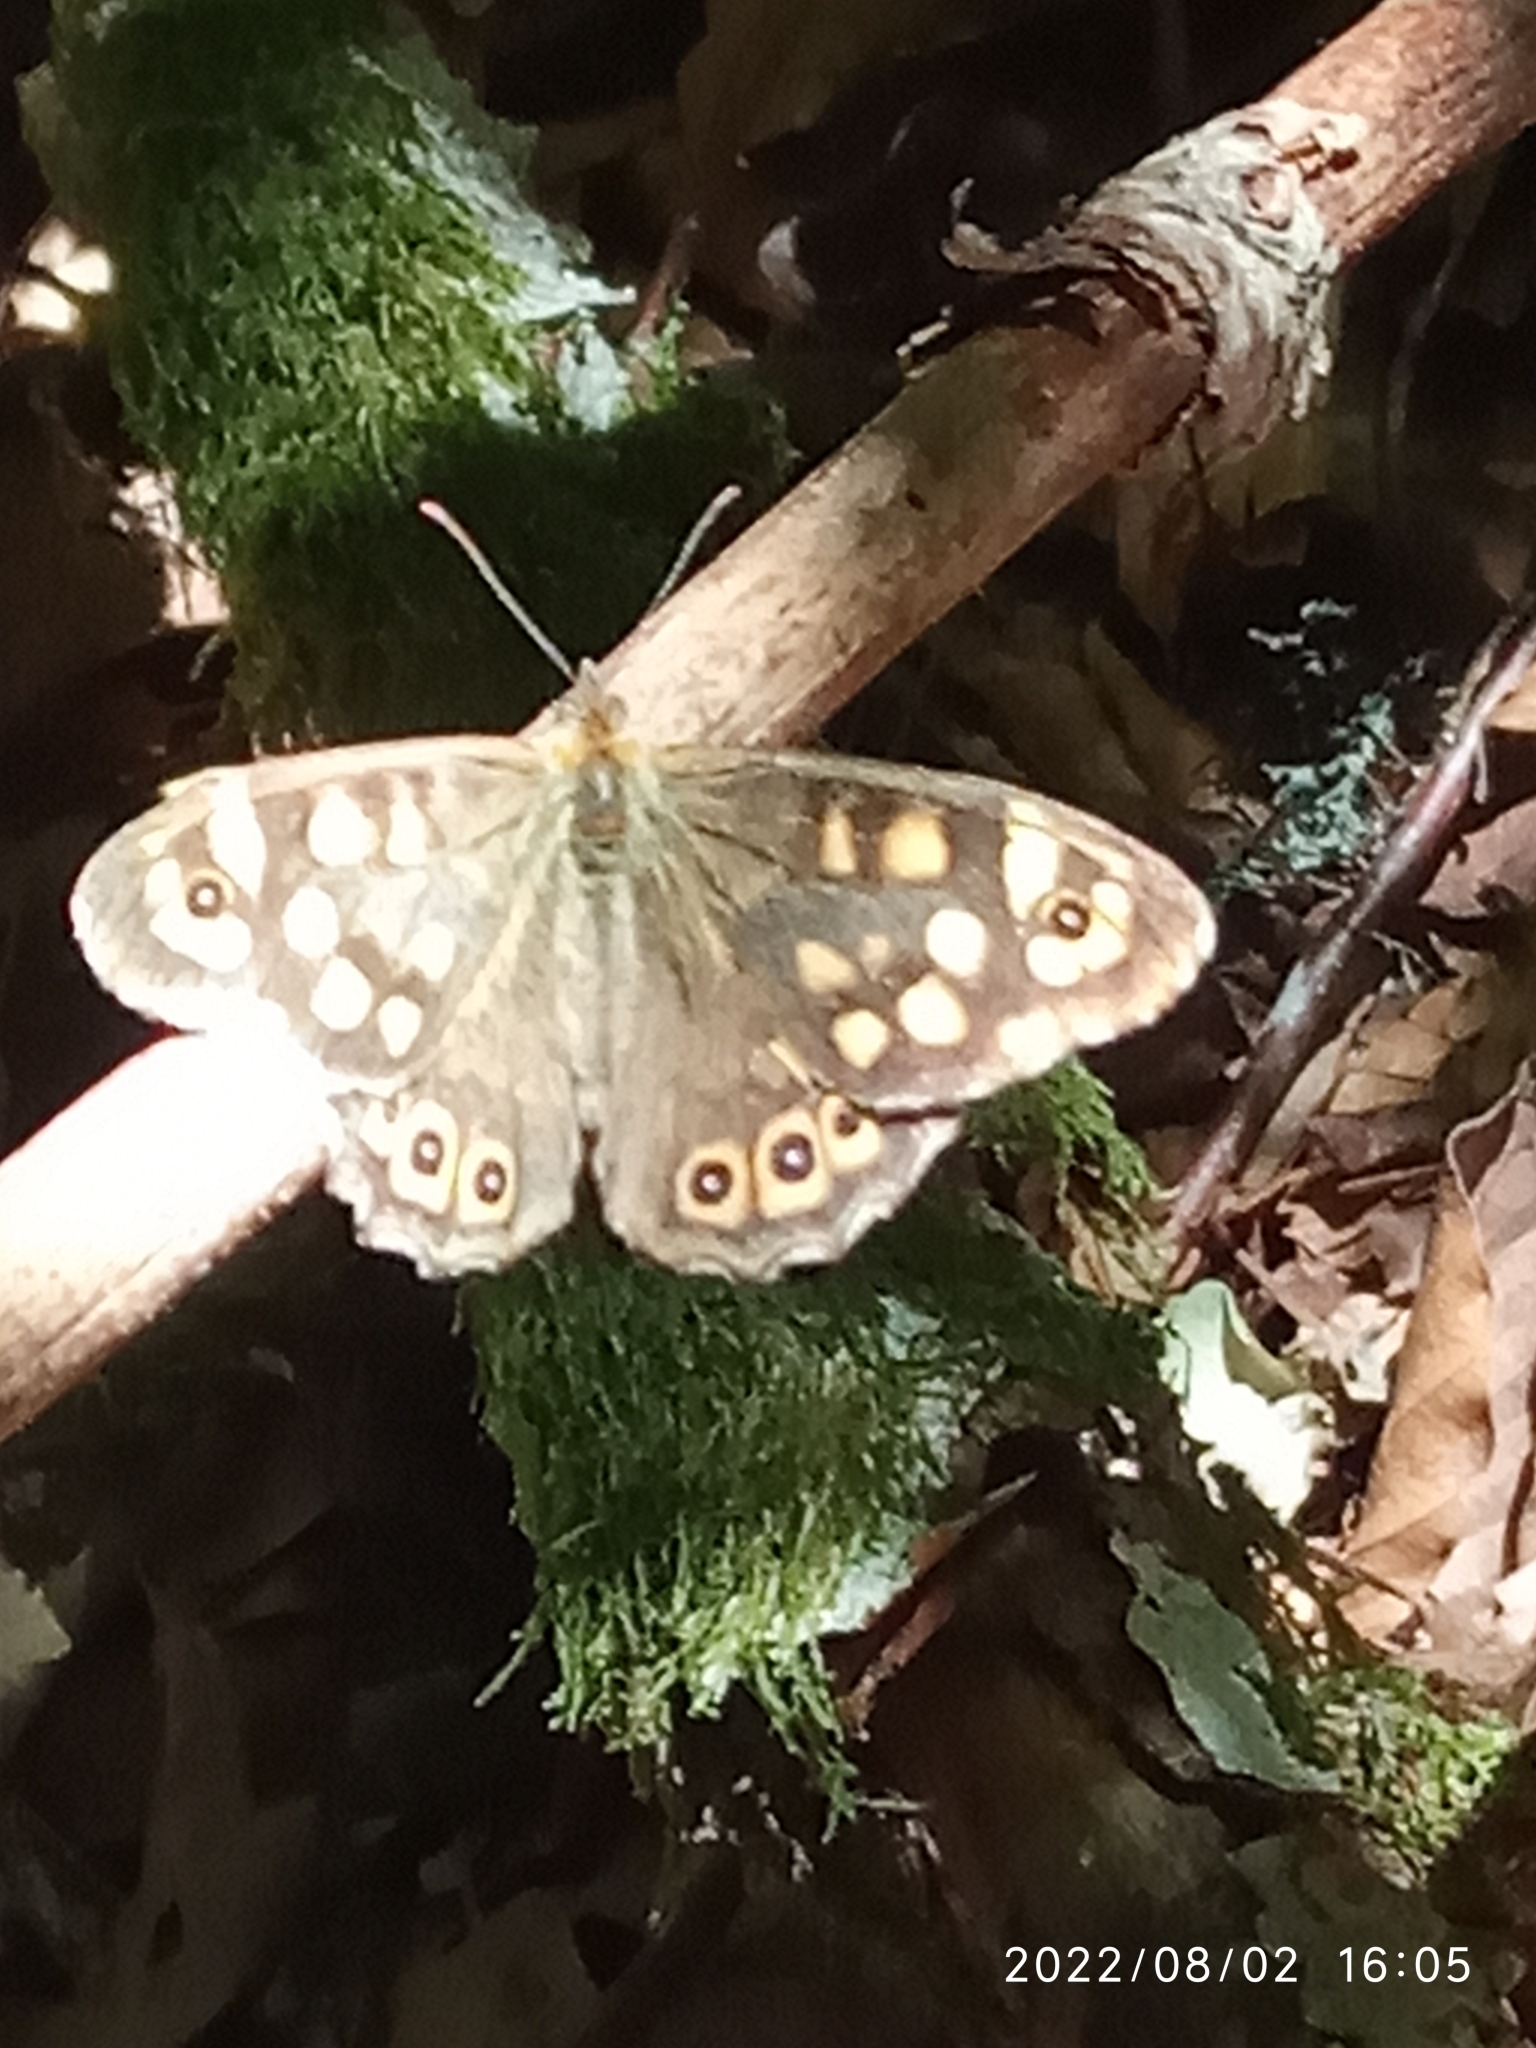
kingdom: Animalia
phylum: Arthropoda
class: Insecta
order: Lepidoptera
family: Nymphalidae
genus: Pararge
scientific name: Pararge aegeria
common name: Speckled wood
